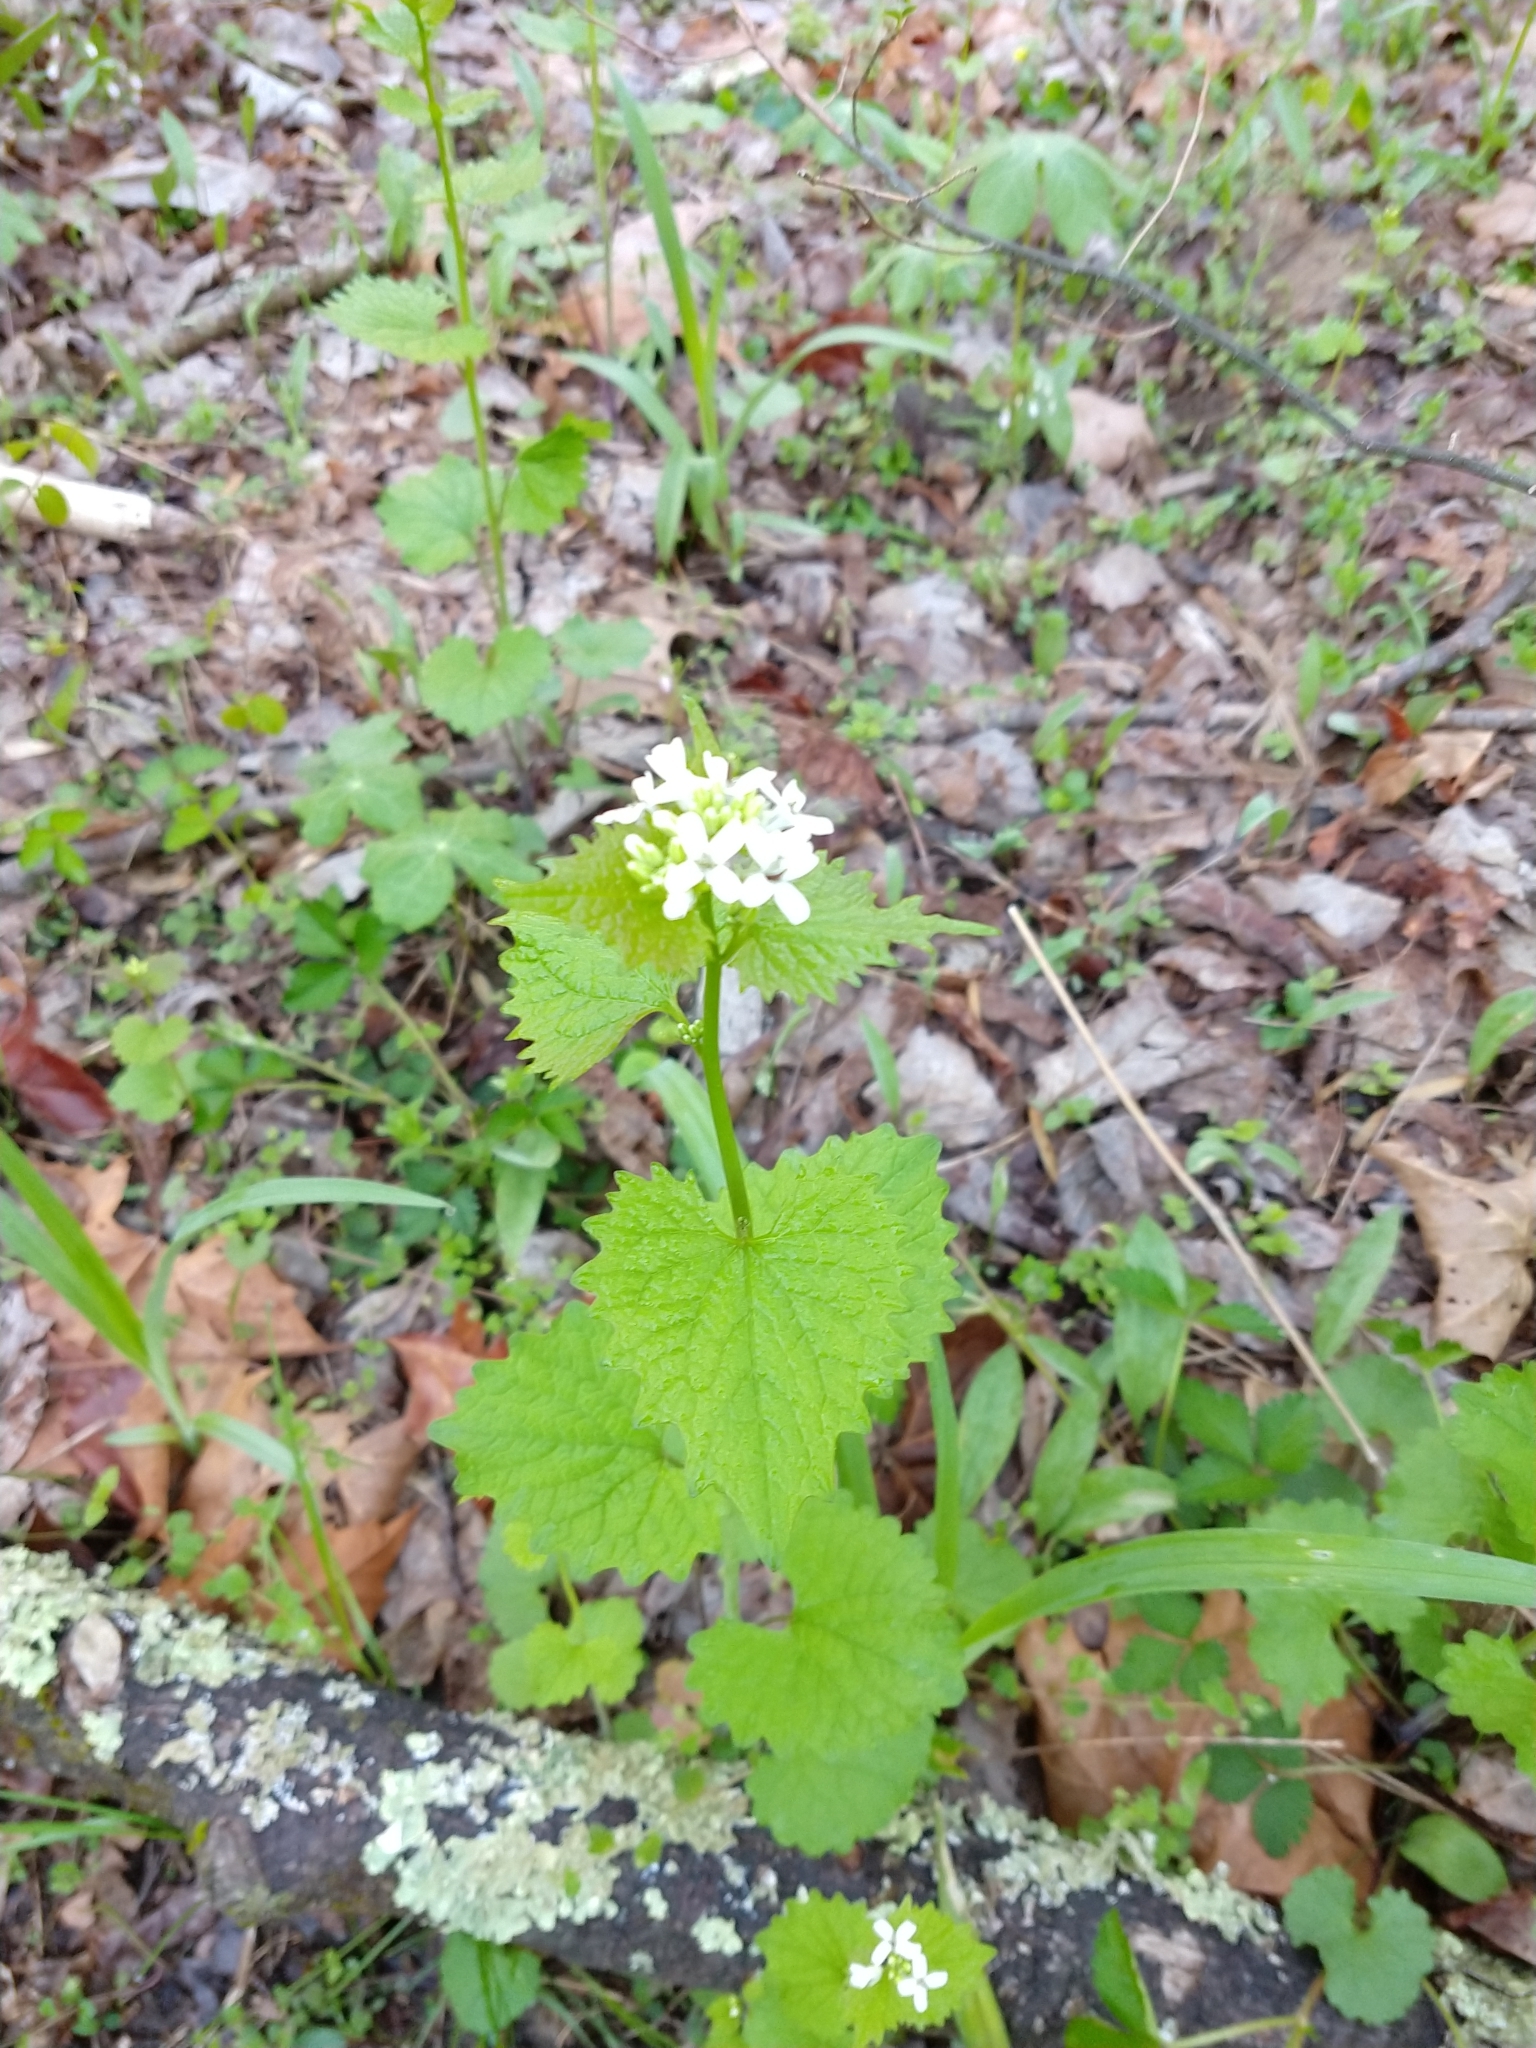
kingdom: Plantae
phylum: Tracheophyta
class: Magnoliopsida
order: Brassicales
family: Brassicaceae
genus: Alliaria
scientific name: Alliaria petiolata
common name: Garlic mustard
